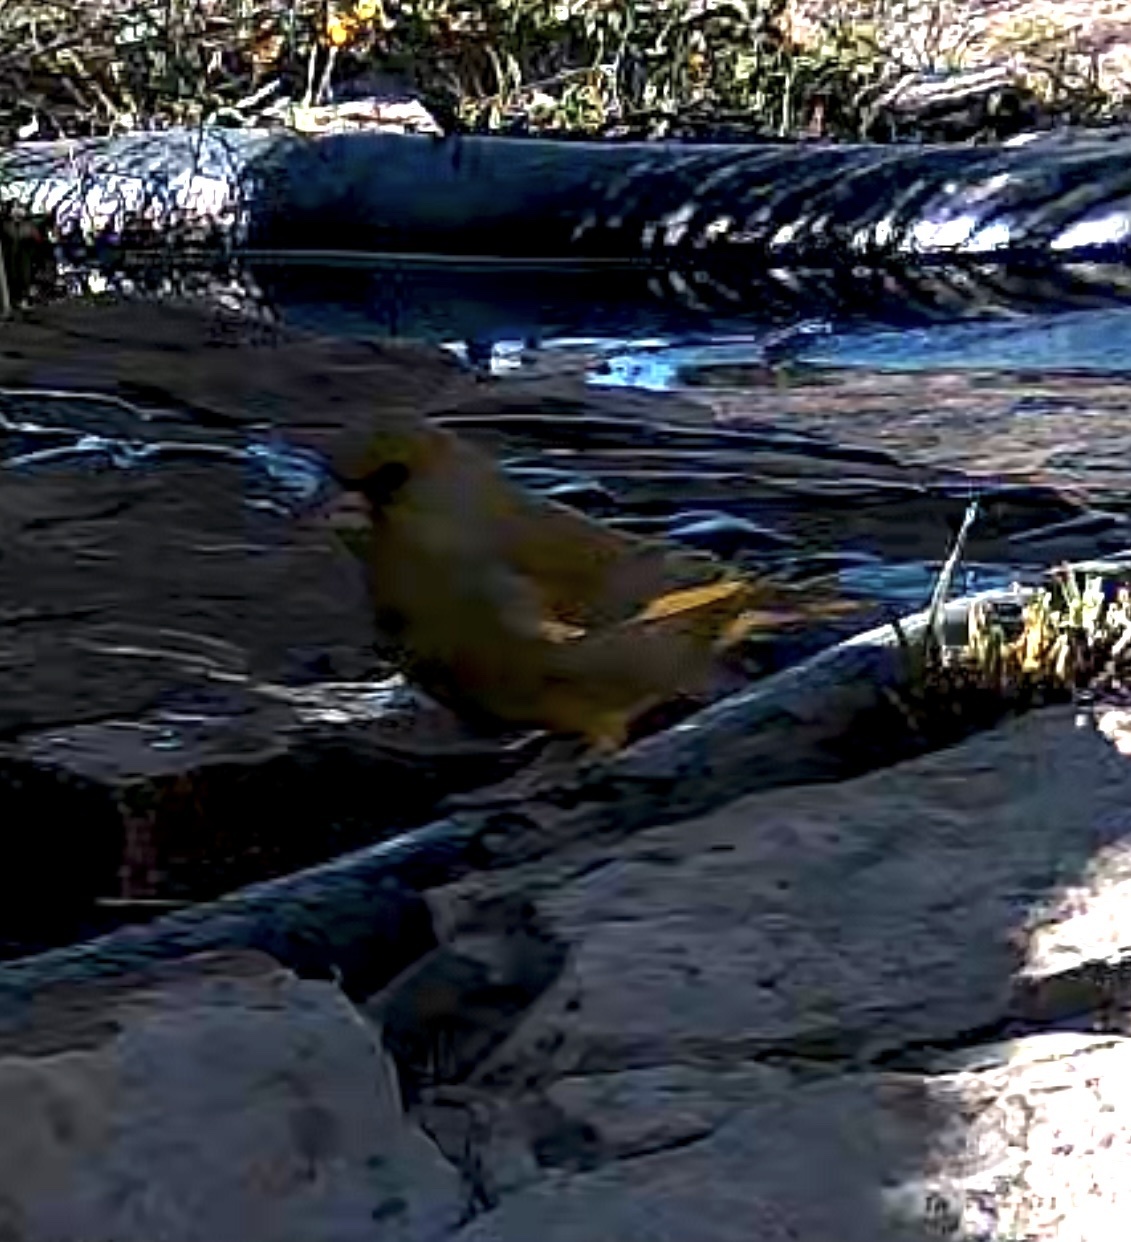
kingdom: Plantae
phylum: Tracheophyta
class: Liliopsida
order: Poales
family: Poaceae
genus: Chloris
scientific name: Chloris chloris
